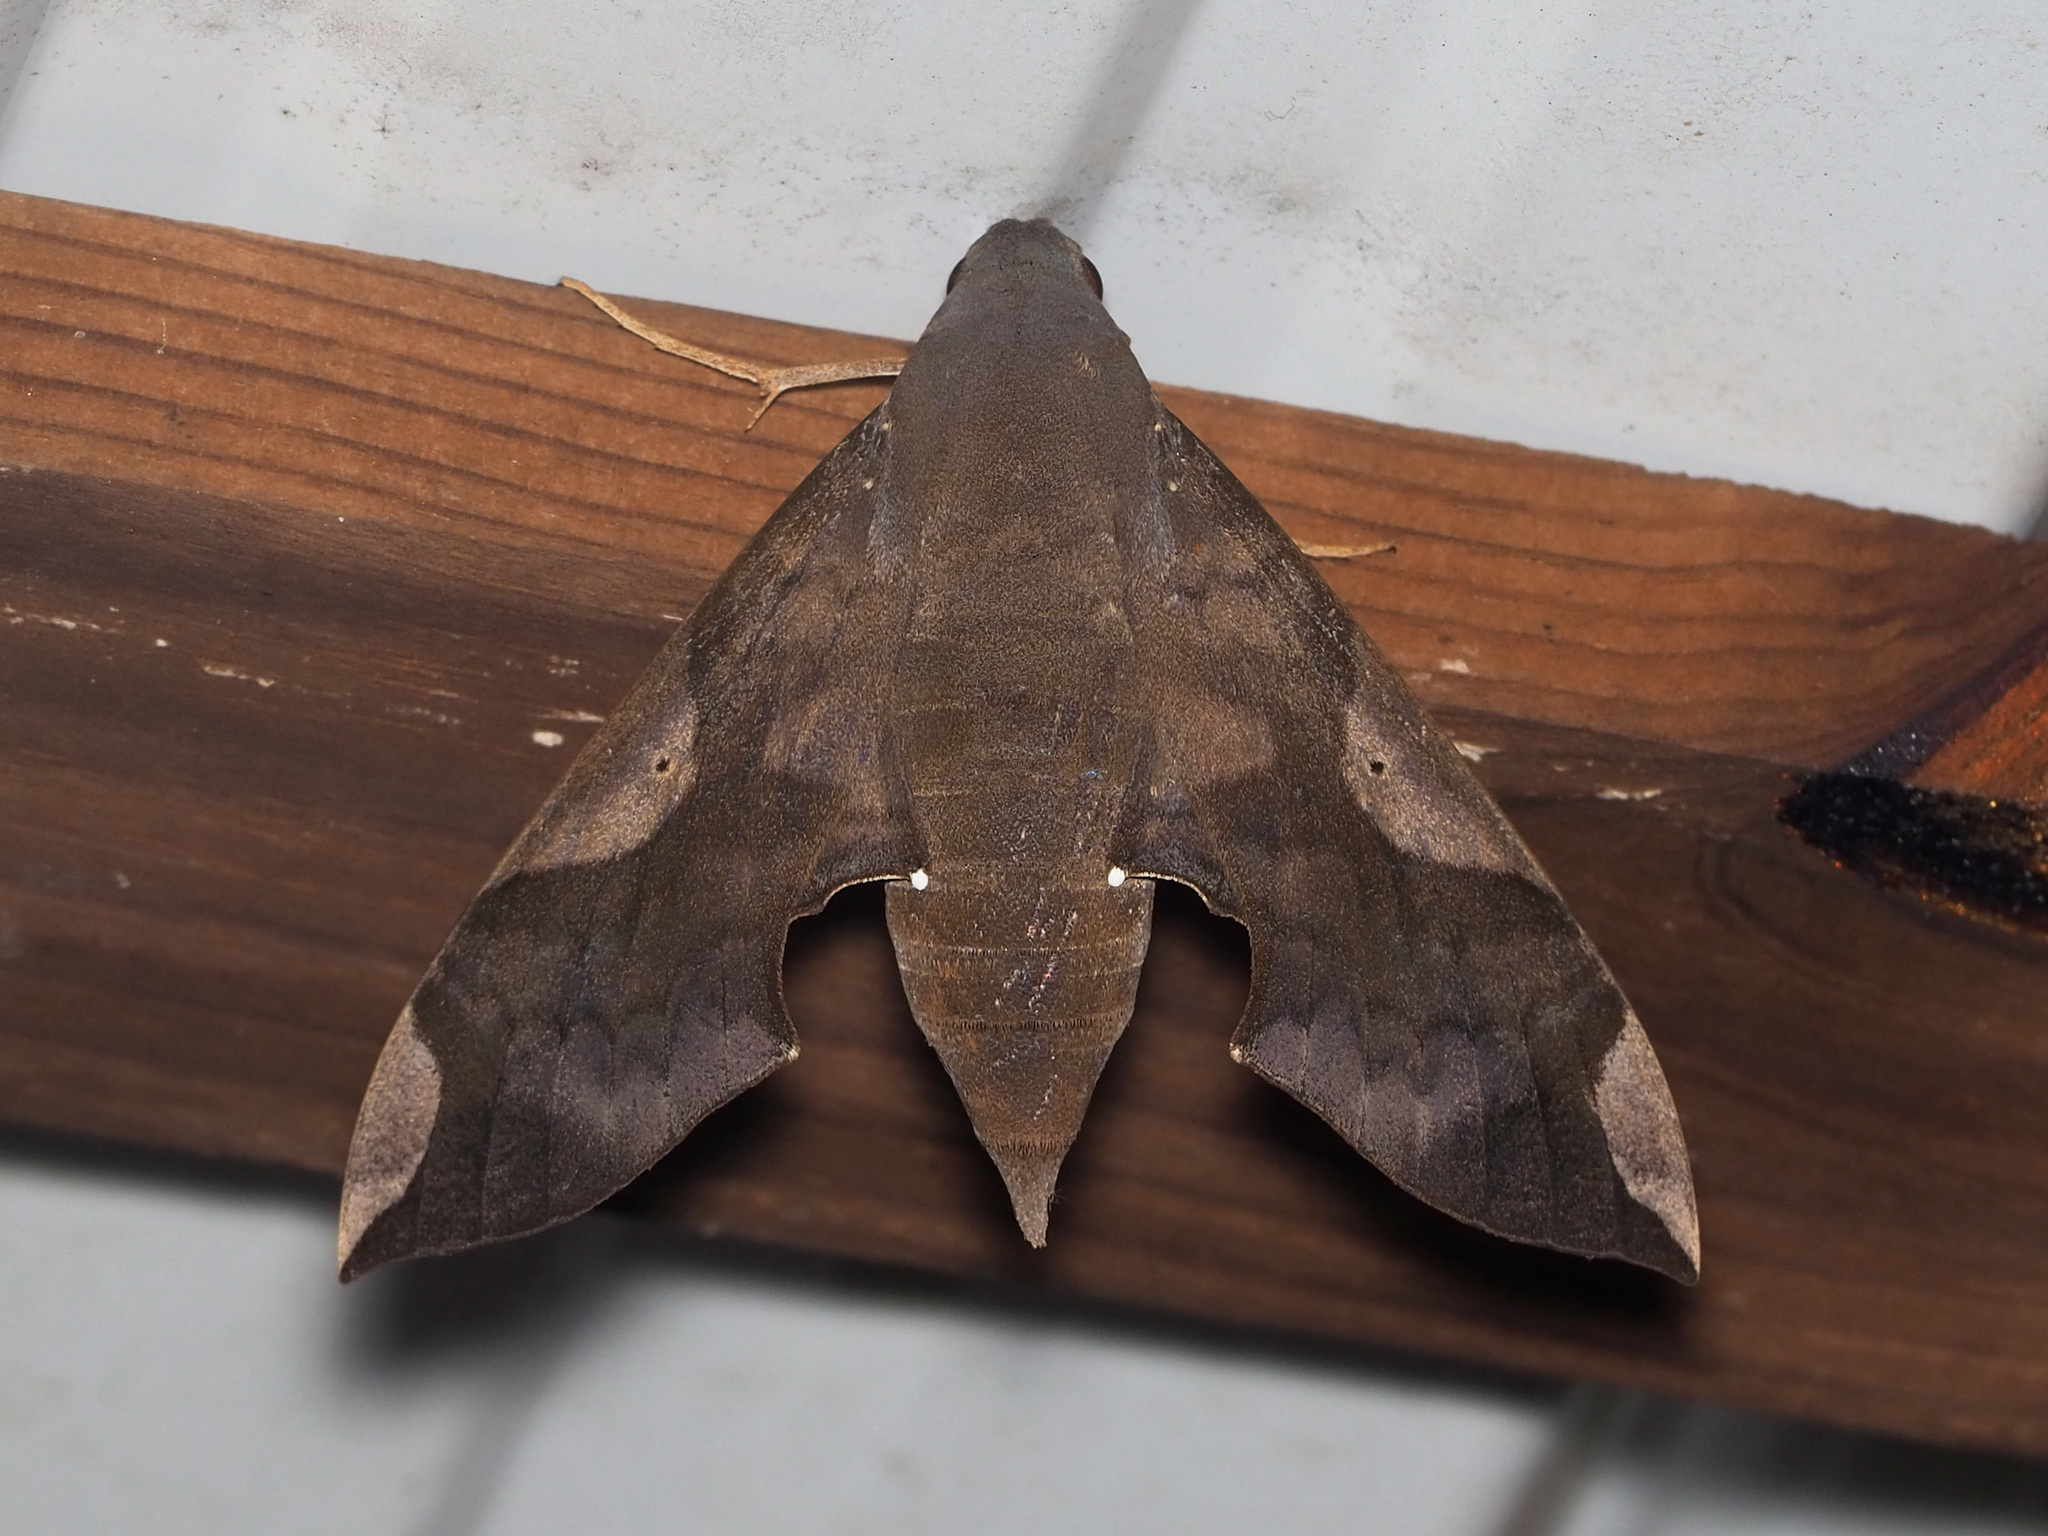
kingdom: Animalia
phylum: Arthropoda
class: Insecta
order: Lepidoptera
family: Sphingidae
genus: Pachylia
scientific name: Pachylia syces
